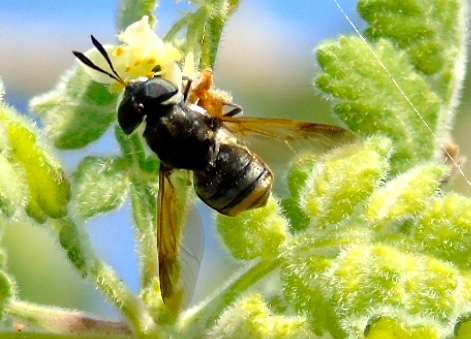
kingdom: Animalia
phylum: Arthropoda
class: Insecta
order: Diptera
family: Stratiomyidae
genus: Hoplitimyia
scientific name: Hoplitimyia
